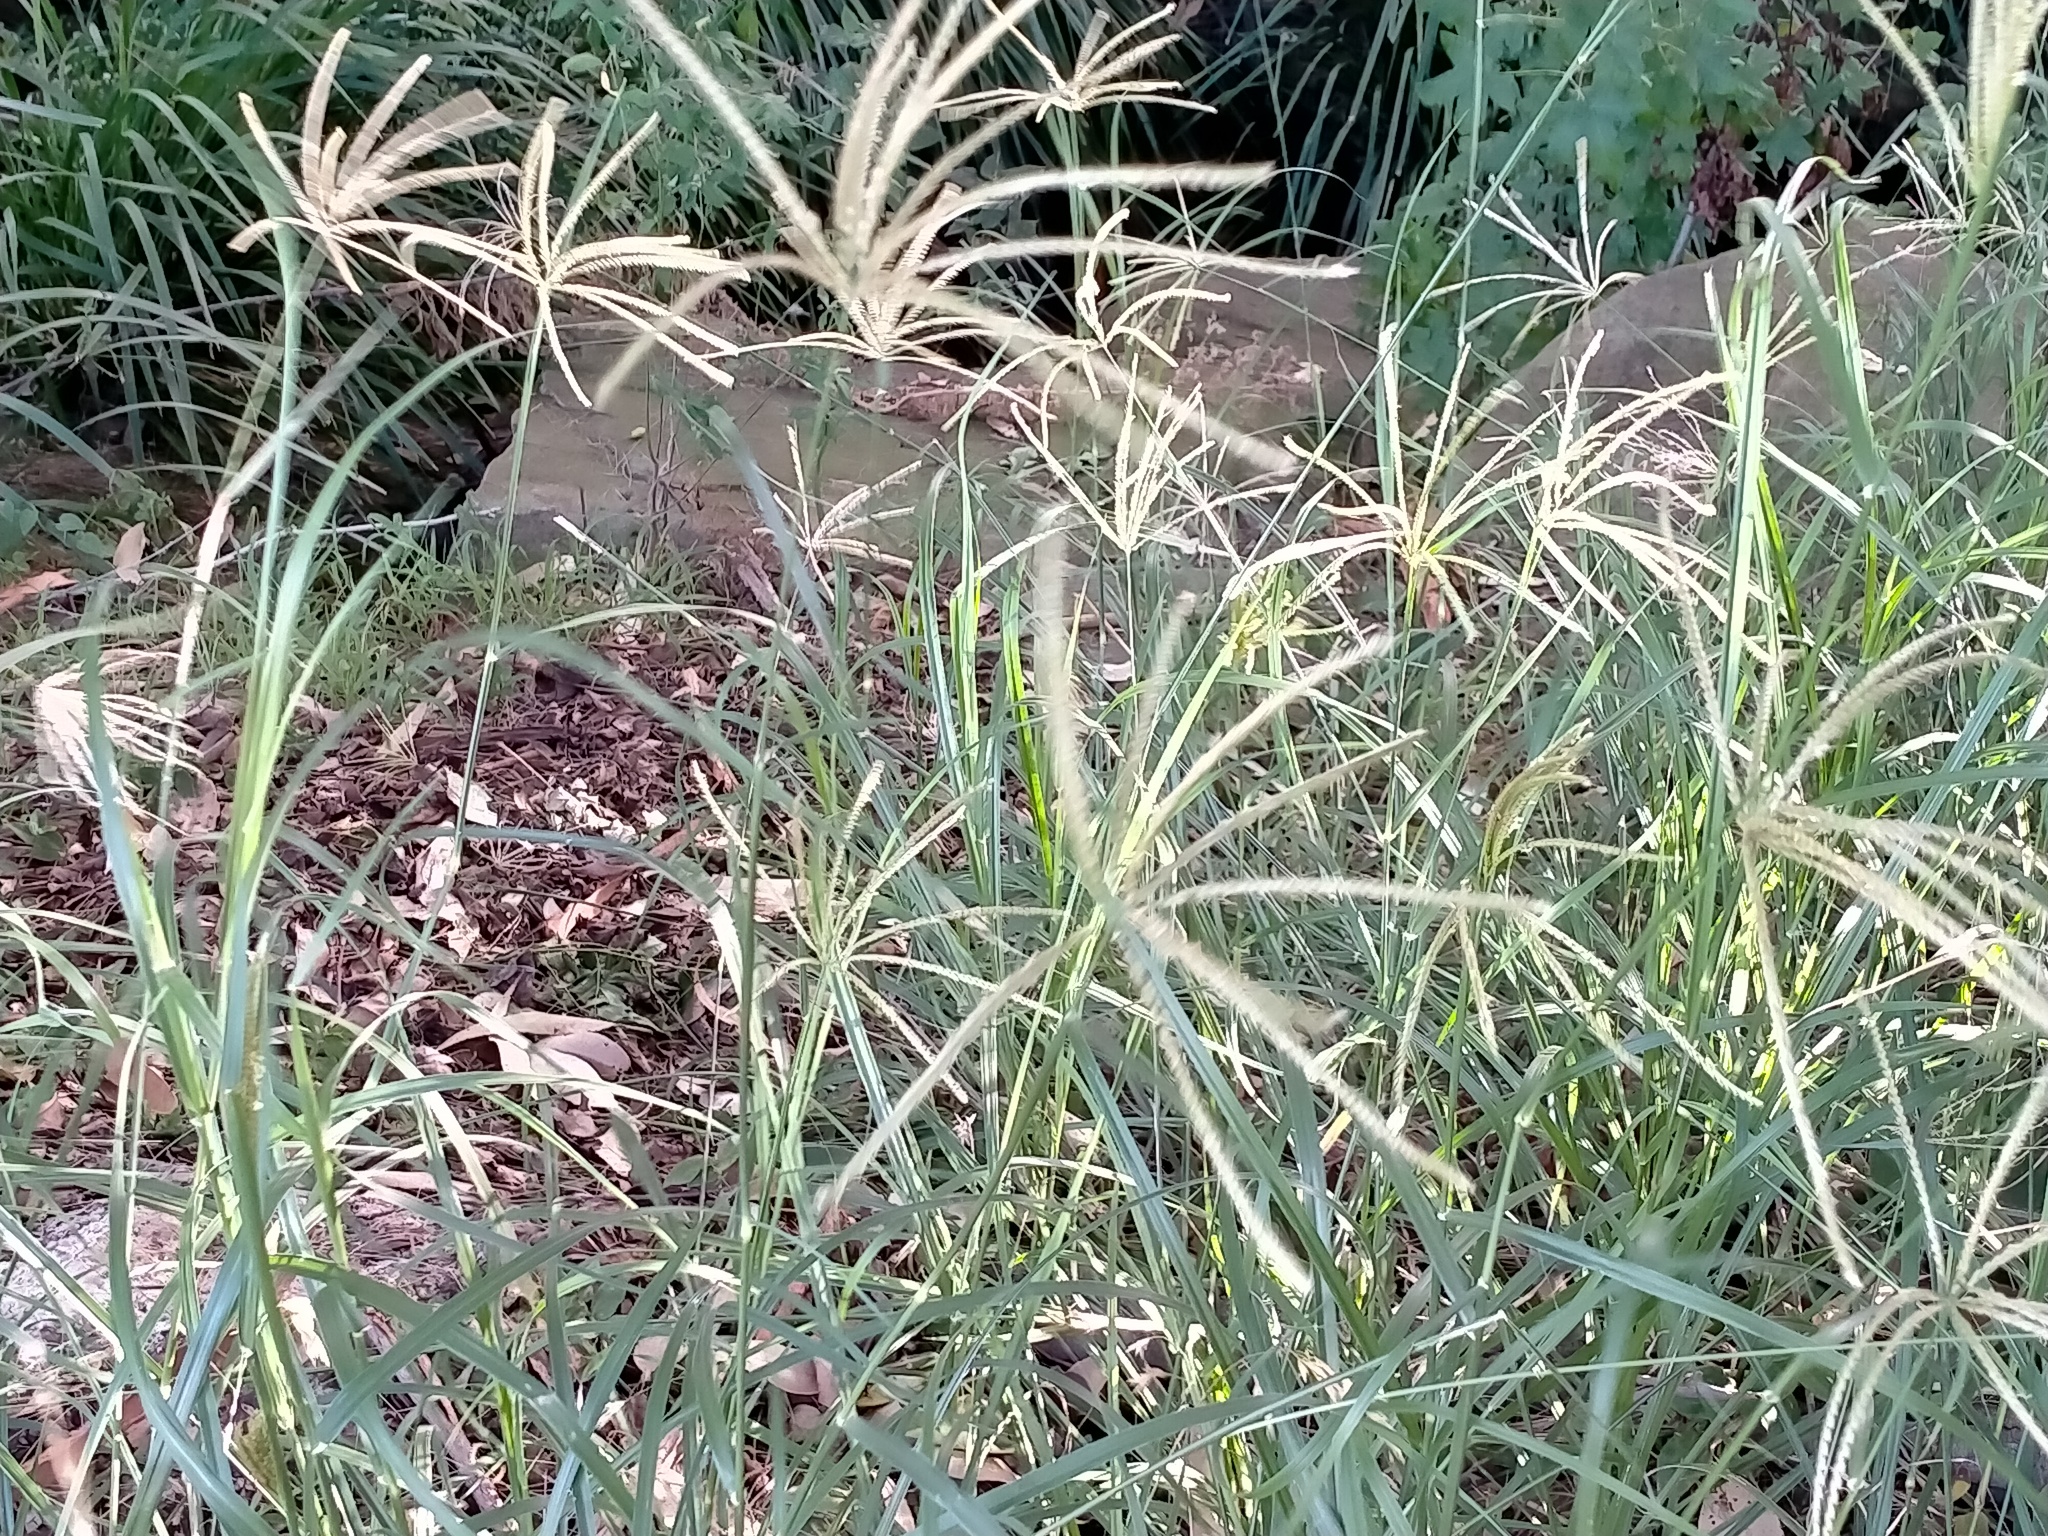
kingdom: Plantae
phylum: Tracheophyta
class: Liliopsida
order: Poales
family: Poaceae
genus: Chloris
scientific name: Chloris gayana
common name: Rhodes grass
